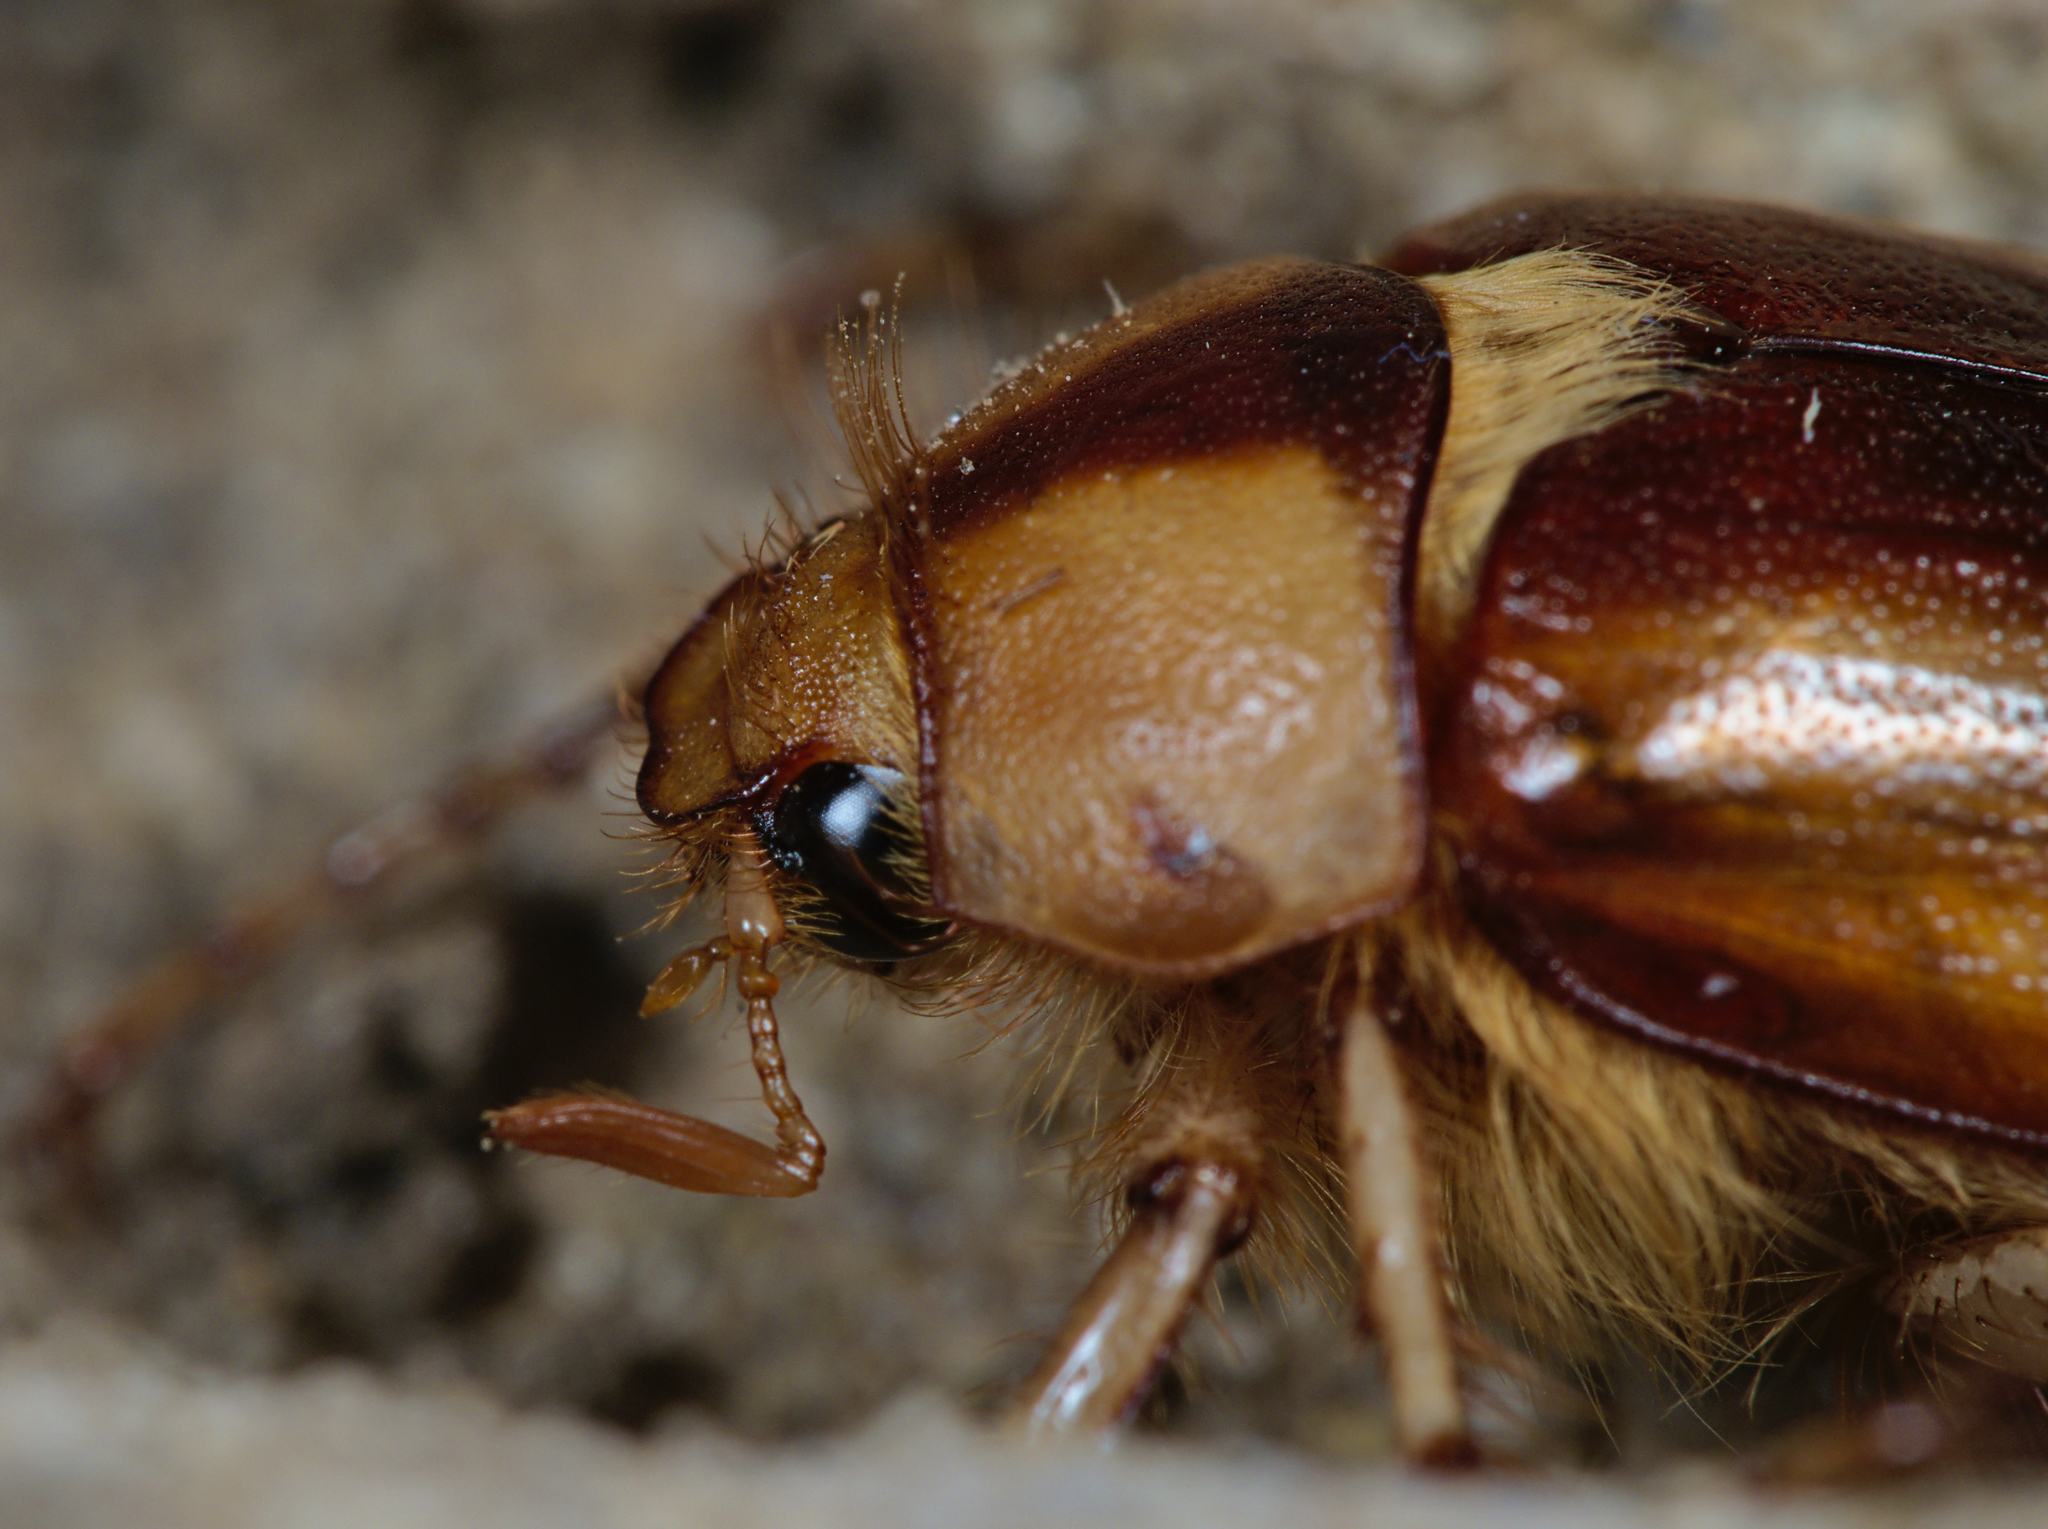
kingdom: Animalia
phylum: Arthropoda
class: Insecta
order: Coleoptera
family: Scarabaeidae
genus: Rhizotrogus
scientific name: Rhizotrogus aestivus
